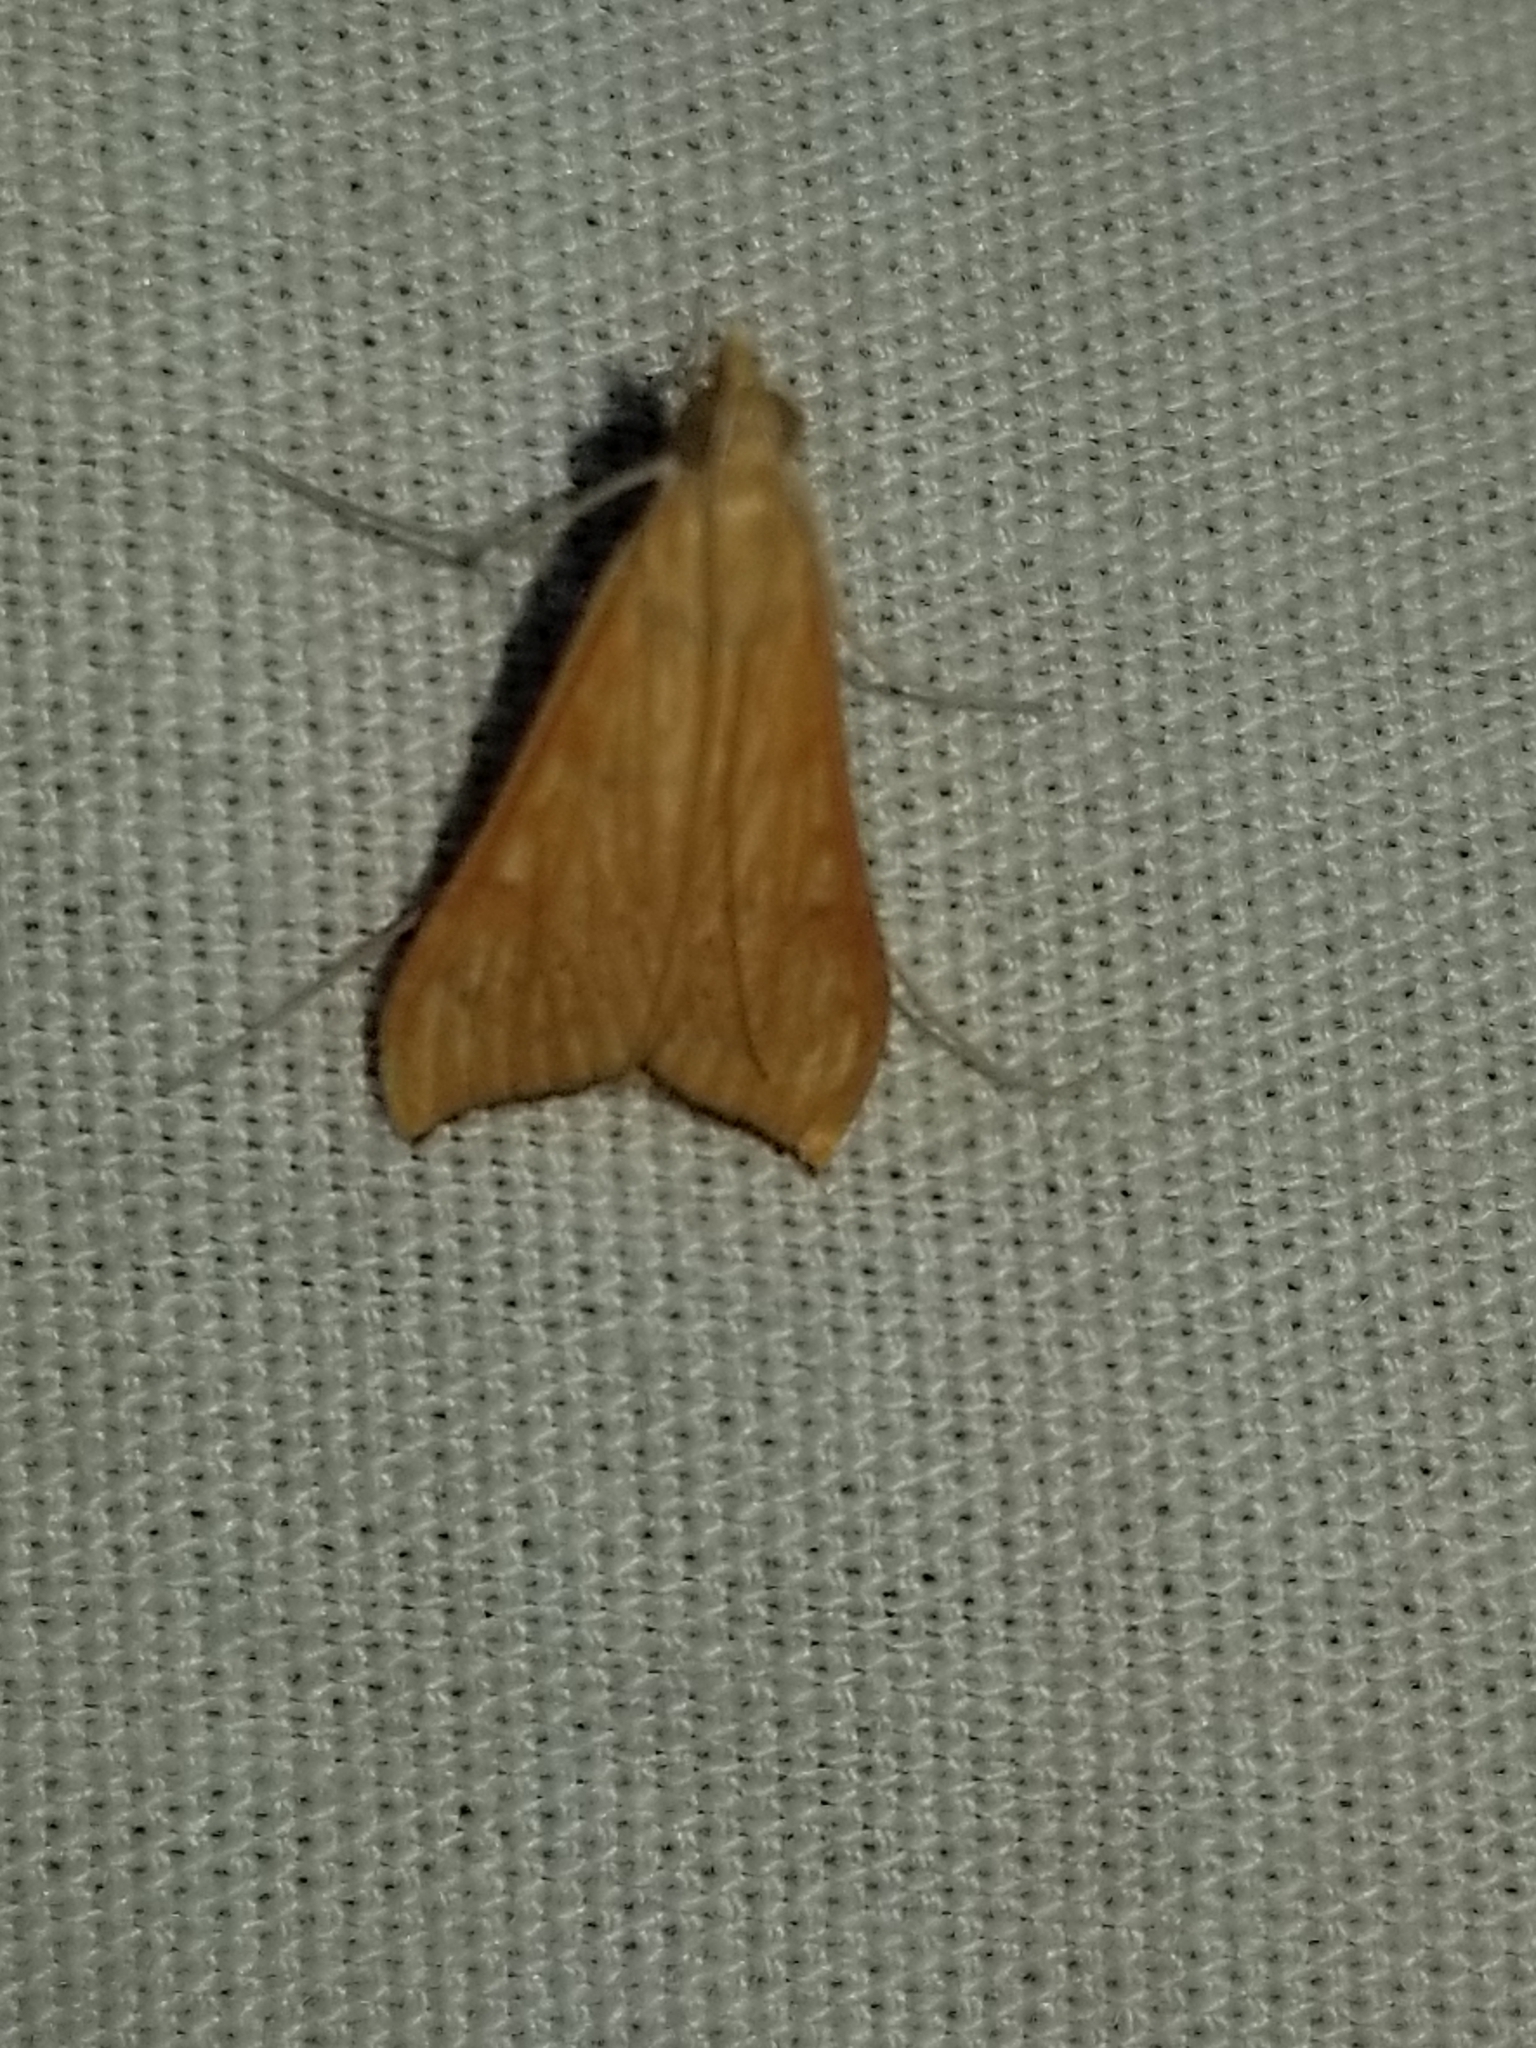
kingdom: Animalia
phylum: Arthropoda
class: Insecta
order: Lepidoptera
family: Crambidae
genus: Antigastra
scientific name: Antigastra catalaunalis
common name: Spanish dot
